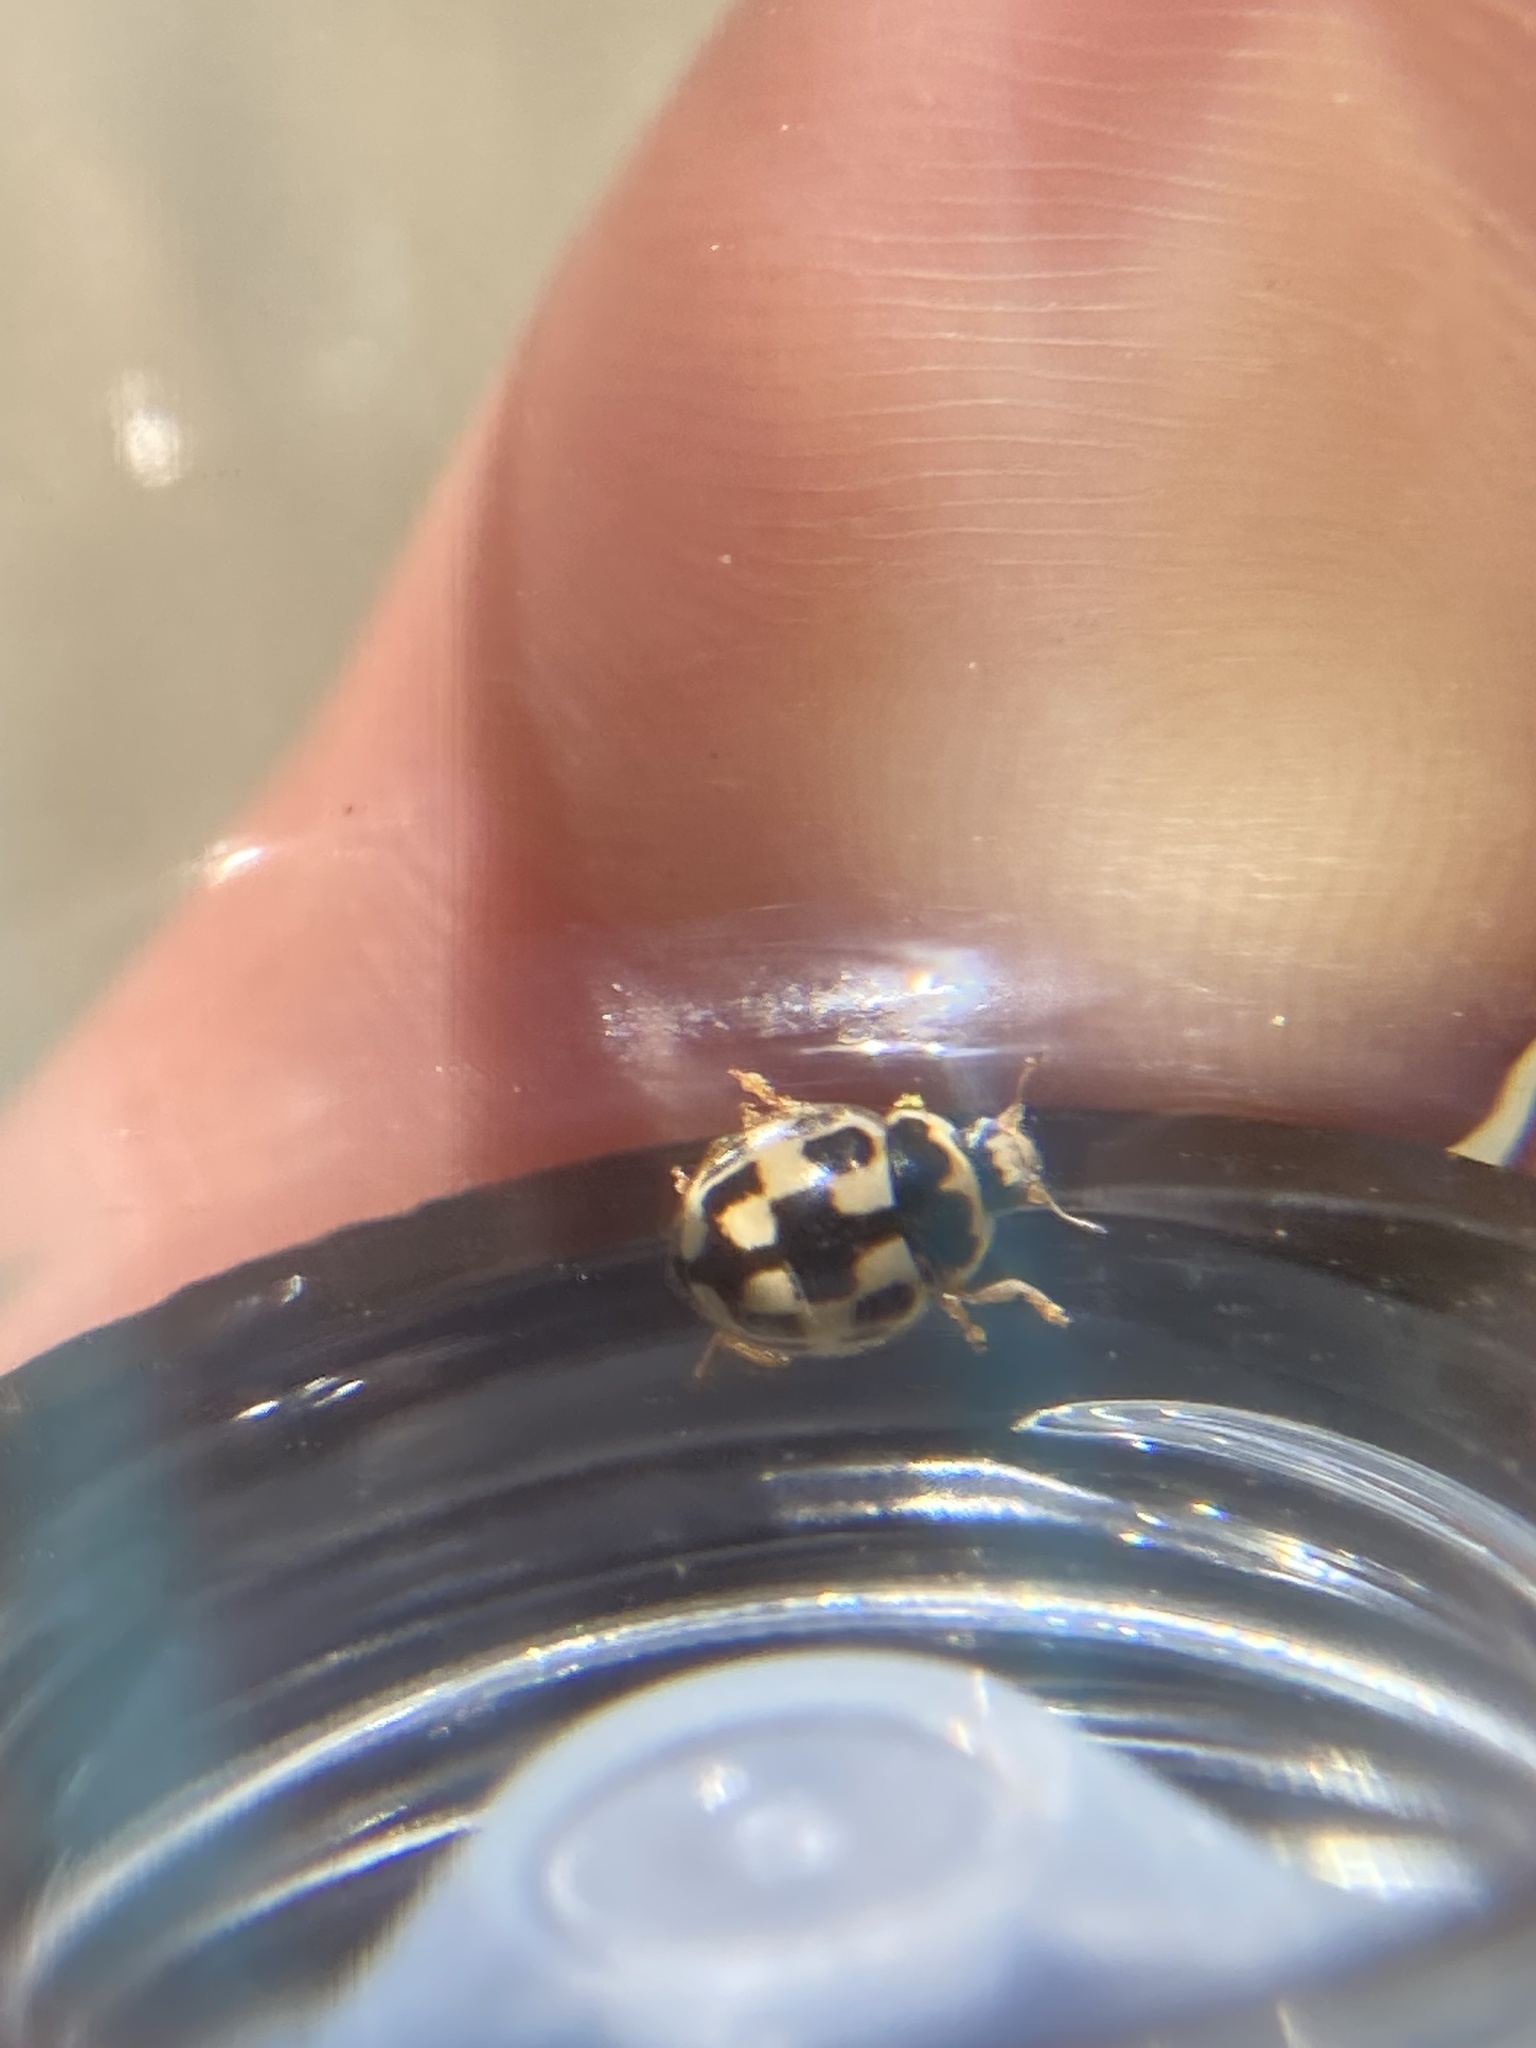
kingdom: Animalia
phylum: Arthropoda
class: Insecta
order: Coleoptera
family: Coccinellidae
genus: Propylaea
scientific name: Propylaea quatuordecimpunctata
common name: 14-spotted ladybird beetle
